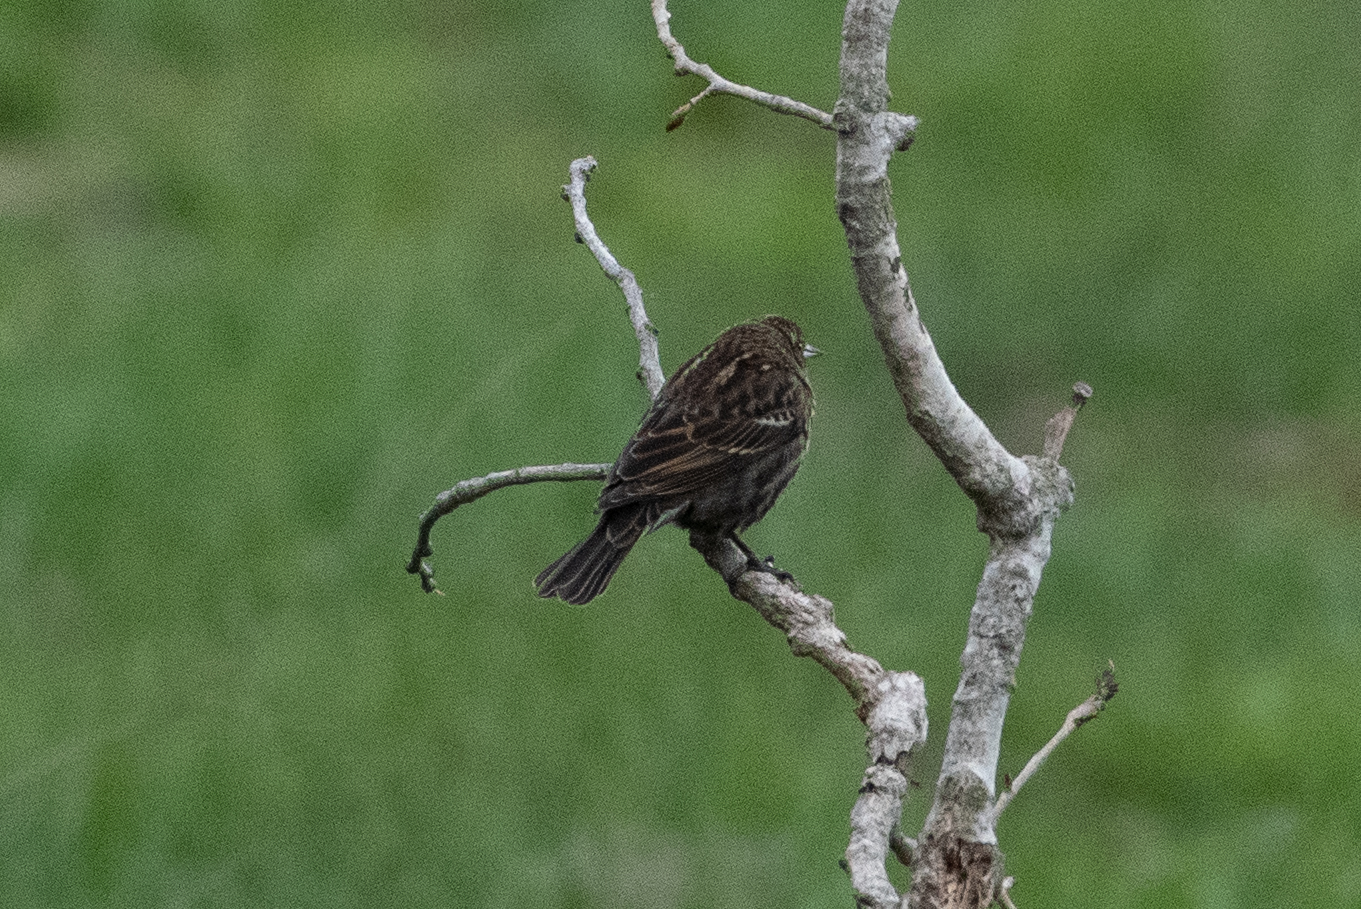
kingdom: Animalia
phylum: Chordata
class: Aves
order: Passeriformes
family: Icteridae
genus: Agelaius
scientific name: Agelaius phoeniceus
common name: Red-winged blackbird
